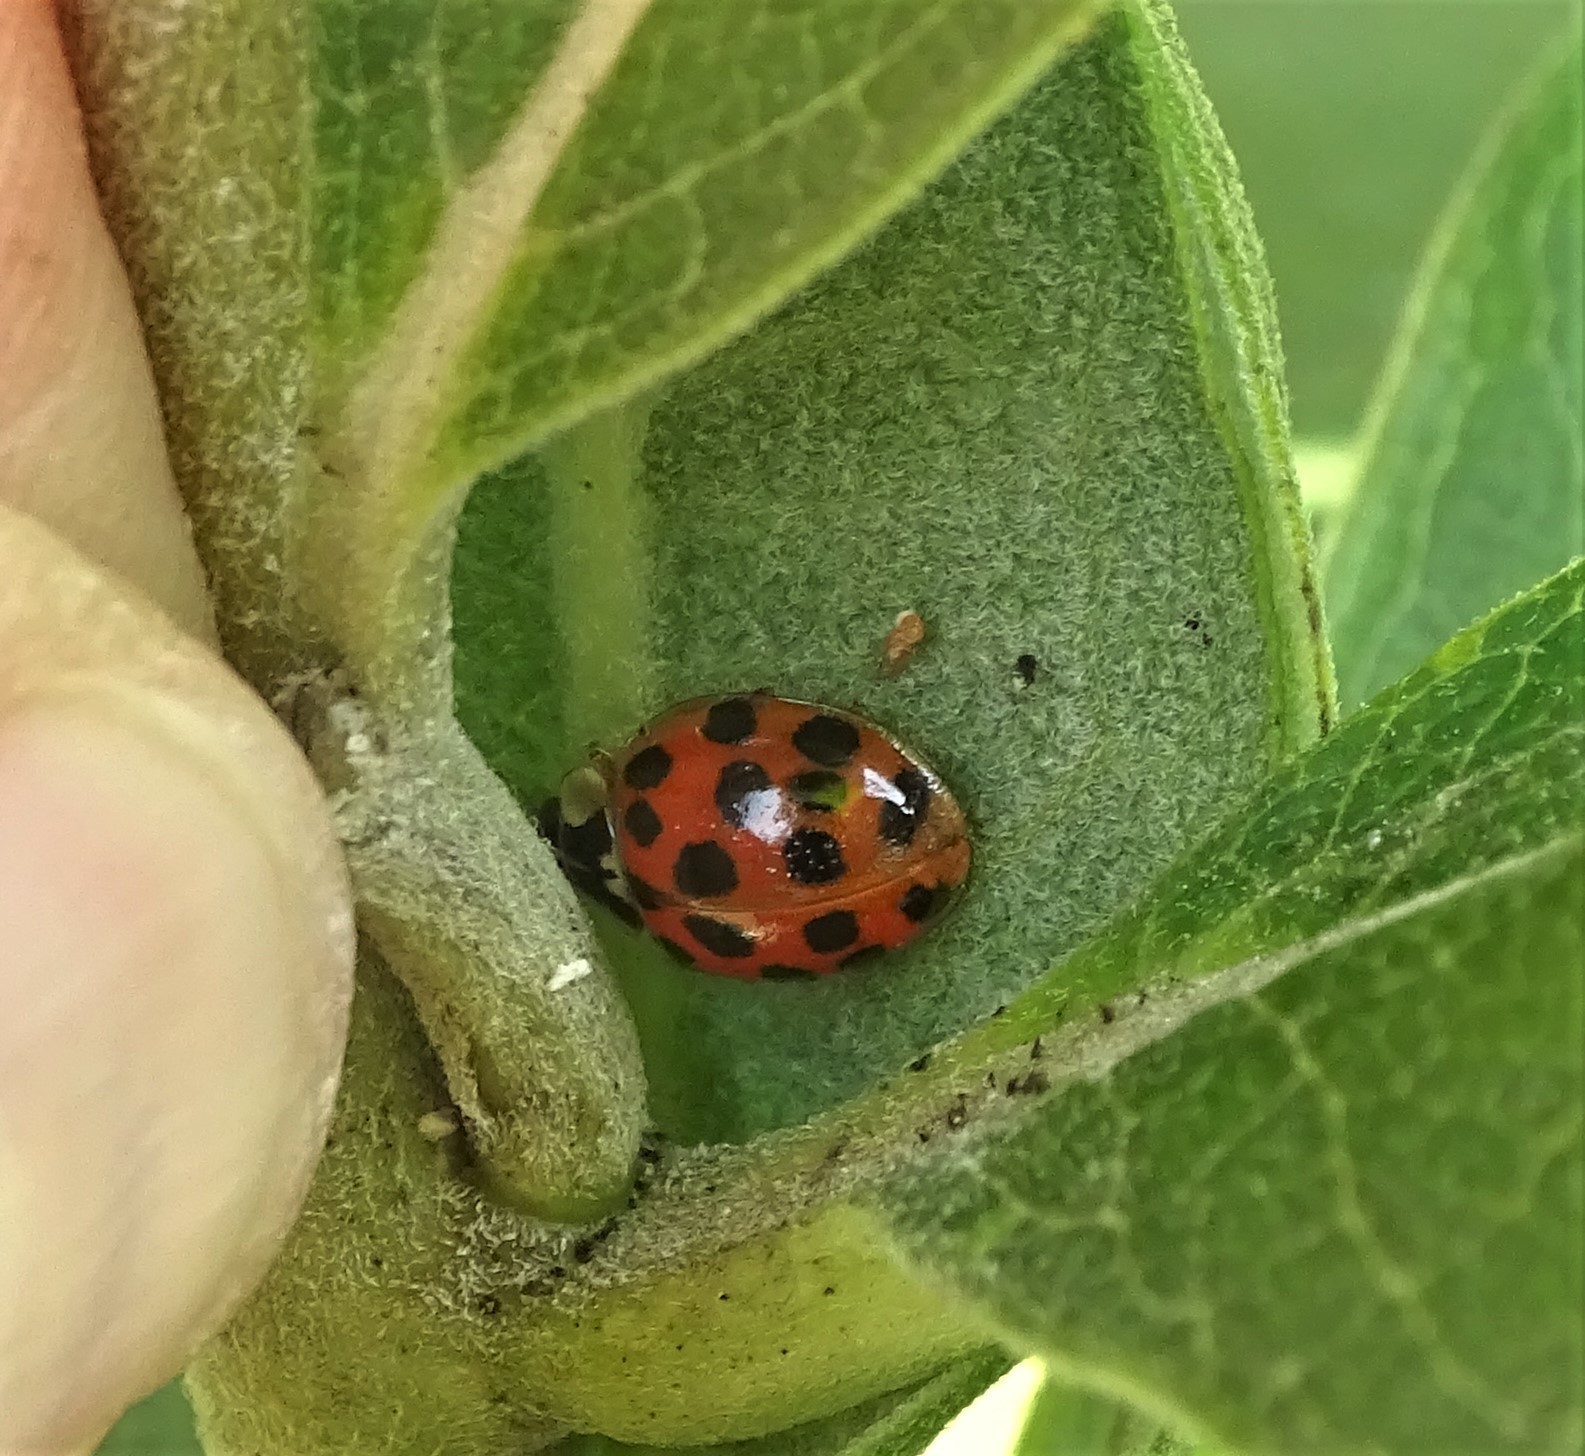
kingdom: Animalia
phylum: Arthropoda
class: Insecta
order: Coleoptera
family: Coccinellidae
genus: Harmonia
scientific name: Harmonia axyridis
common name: Harlequin ladybird
